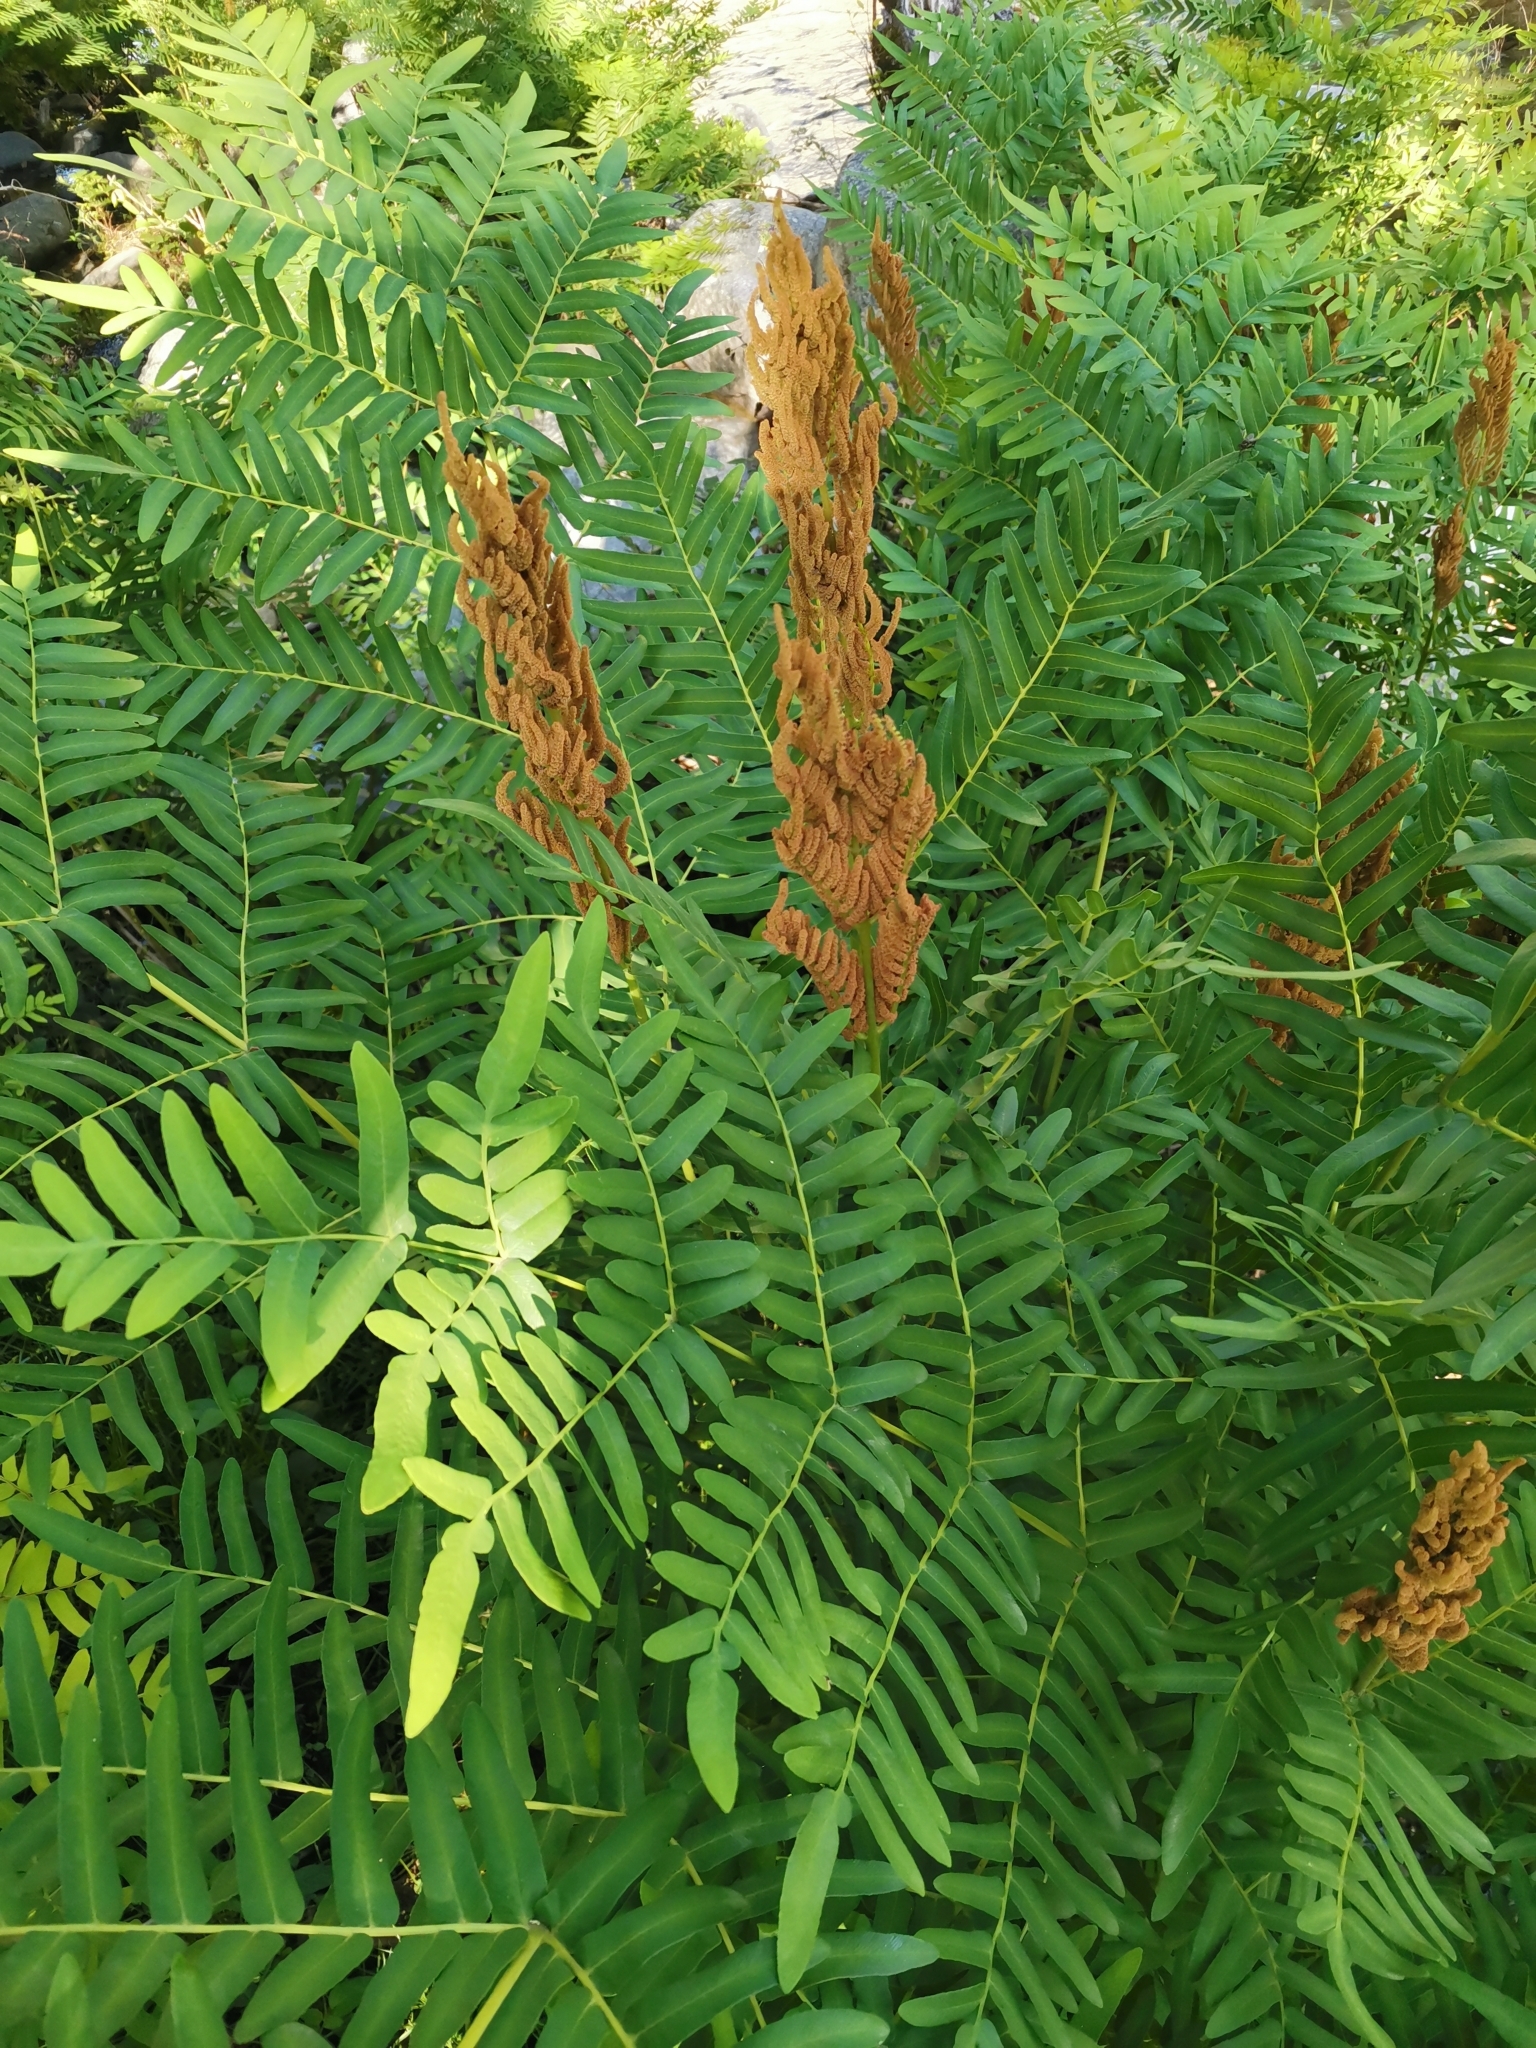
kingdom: Plantae
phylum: Tracheophyta
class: Polypodiopsida
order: Osmundales
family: Osmundaceae
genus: Osmunda
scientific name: Osmunda regalis
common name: Royal fern
